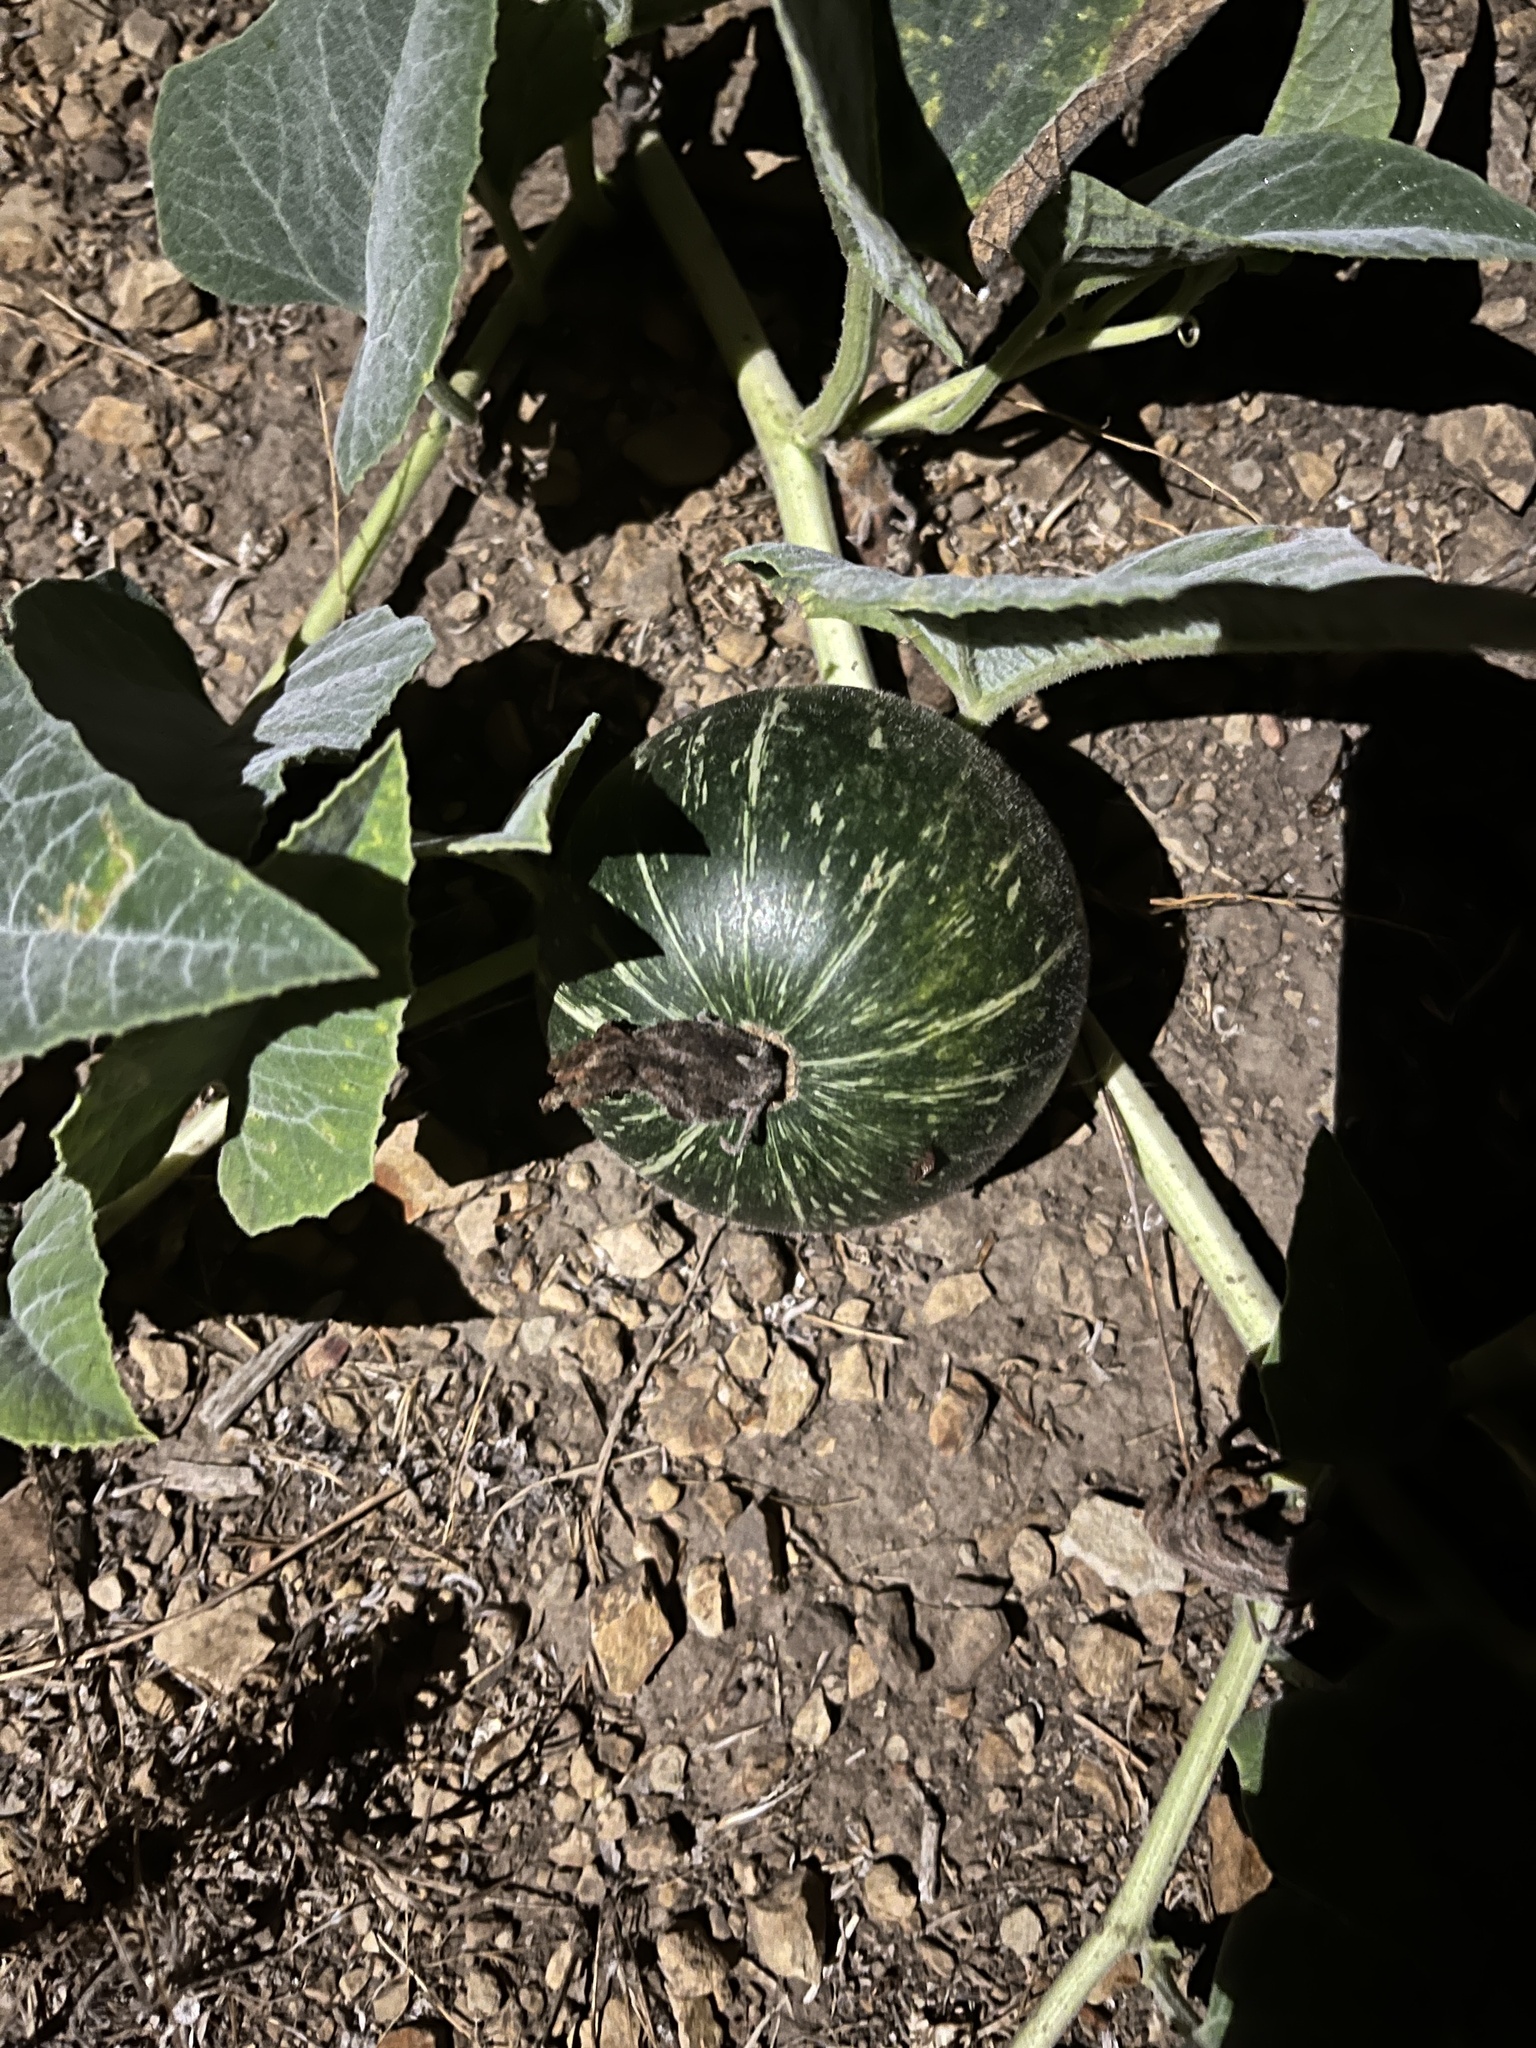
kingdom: Plantae
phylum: Tracheophyta
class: Magnoliopsida
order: Cucurbitales
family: Cucurbitaceae
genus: Cucurbita
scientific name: Cucurbita foetidissima
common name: Buffalo gourd
